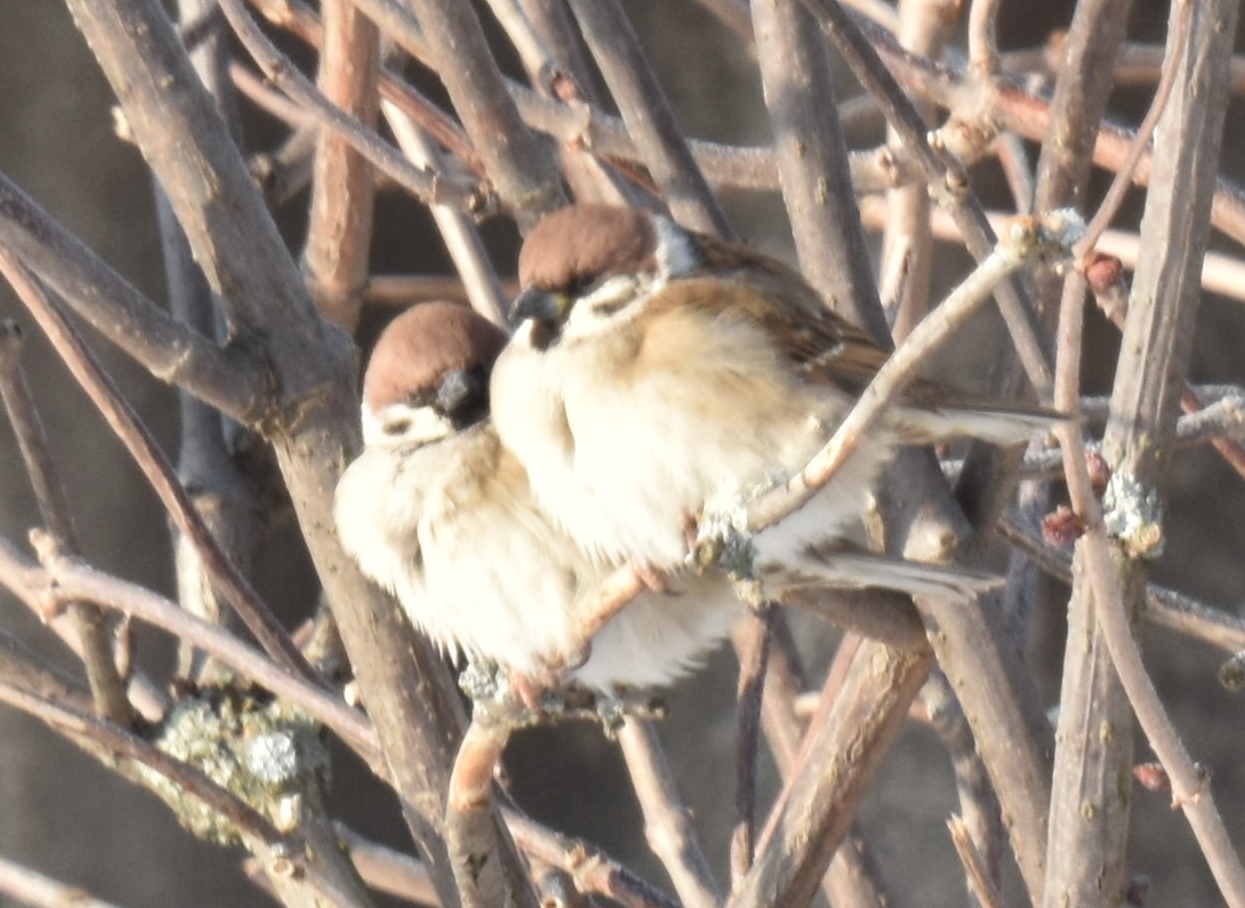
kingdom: Animalia
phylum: Chordata
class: Aves
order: Passeriformes
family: Passeridae
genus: Passer
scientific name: Passer montanus
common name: Eurasian tree sparrow
